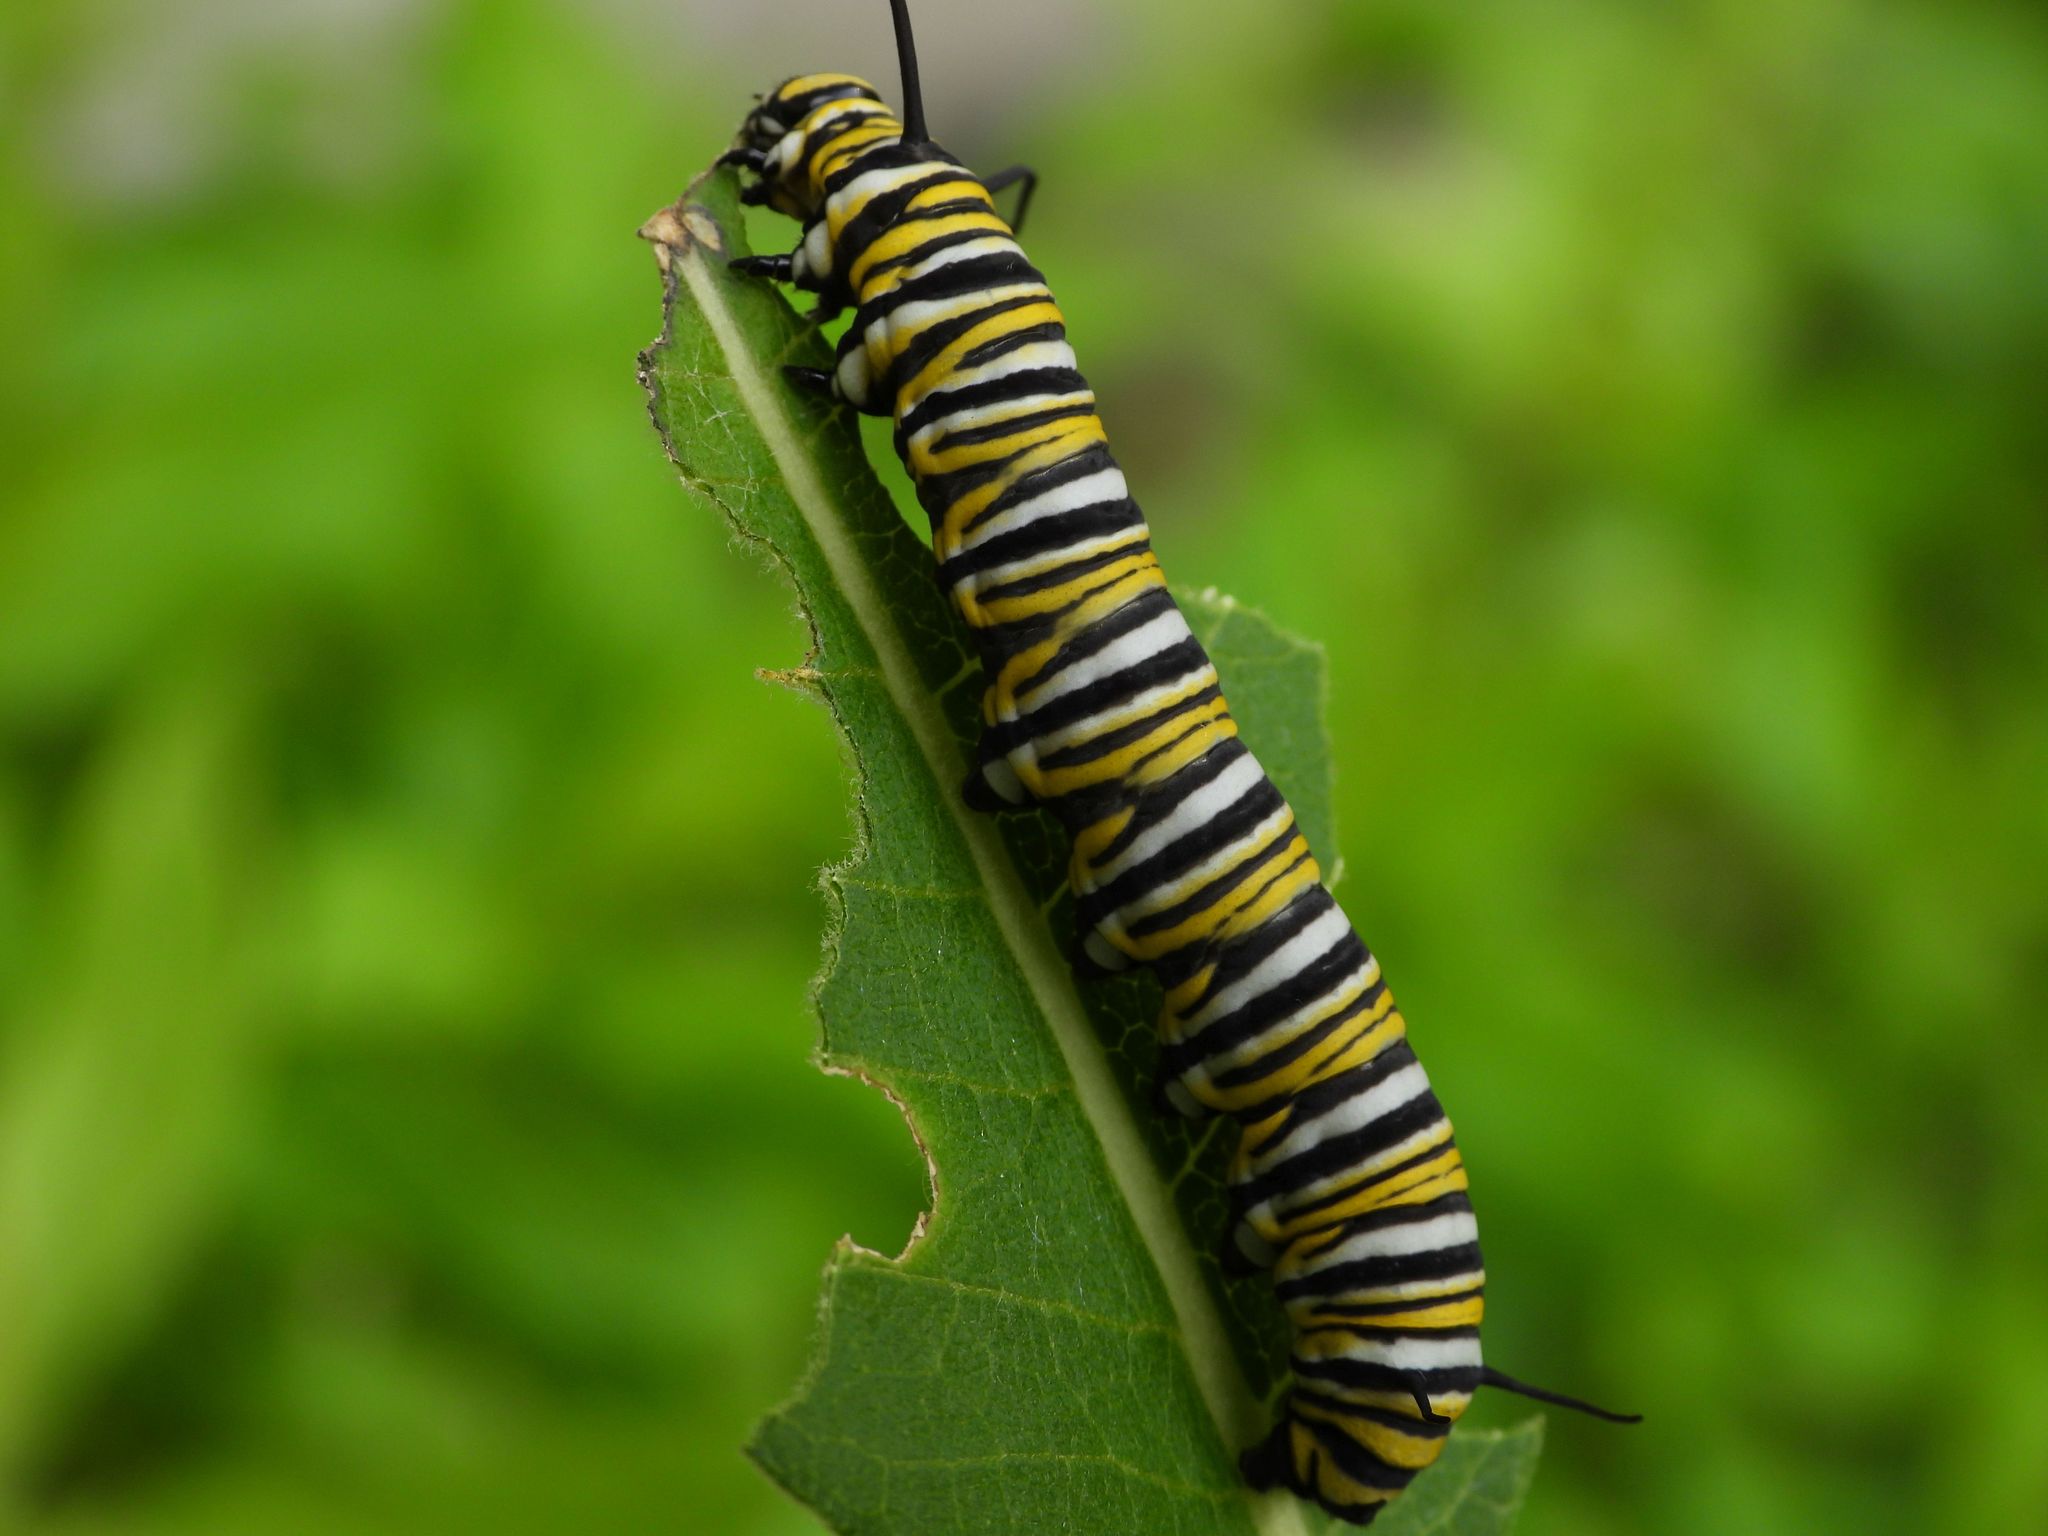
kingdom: Animalia
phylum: Arthropoda
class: Insecta
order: Lepidoptera
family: Nymphalidae
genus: Danaus
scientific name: Danaus plexippus
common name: Monarch
